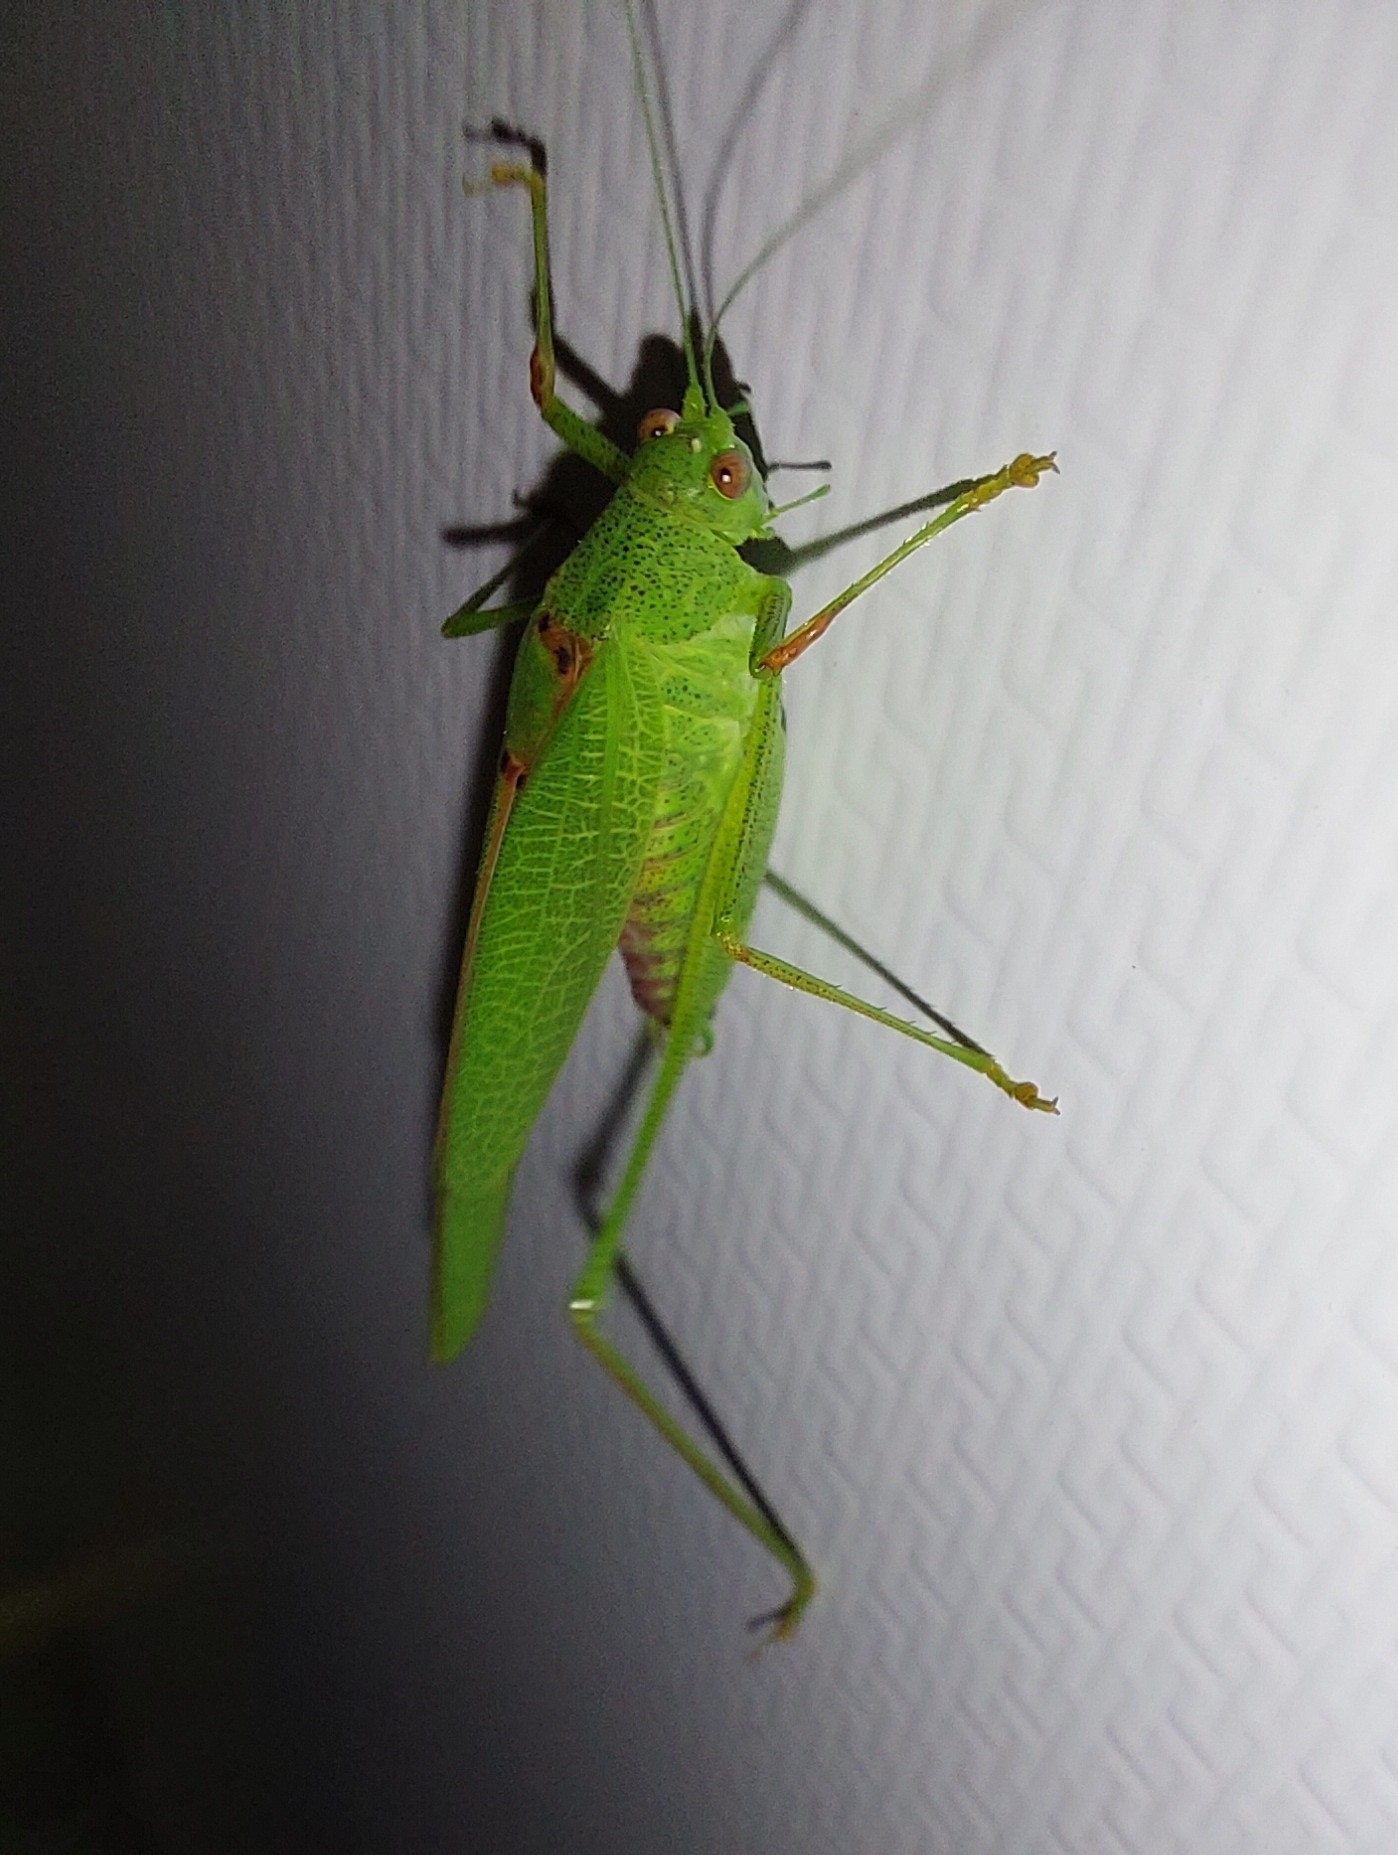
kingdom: Animalia
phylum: Arthropoda
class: Insecta
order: Orthoptera
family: Tettigoniidae
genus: Phaneroptera
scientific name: Phaneroptera nana
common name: Southern sickle bush-cricket
